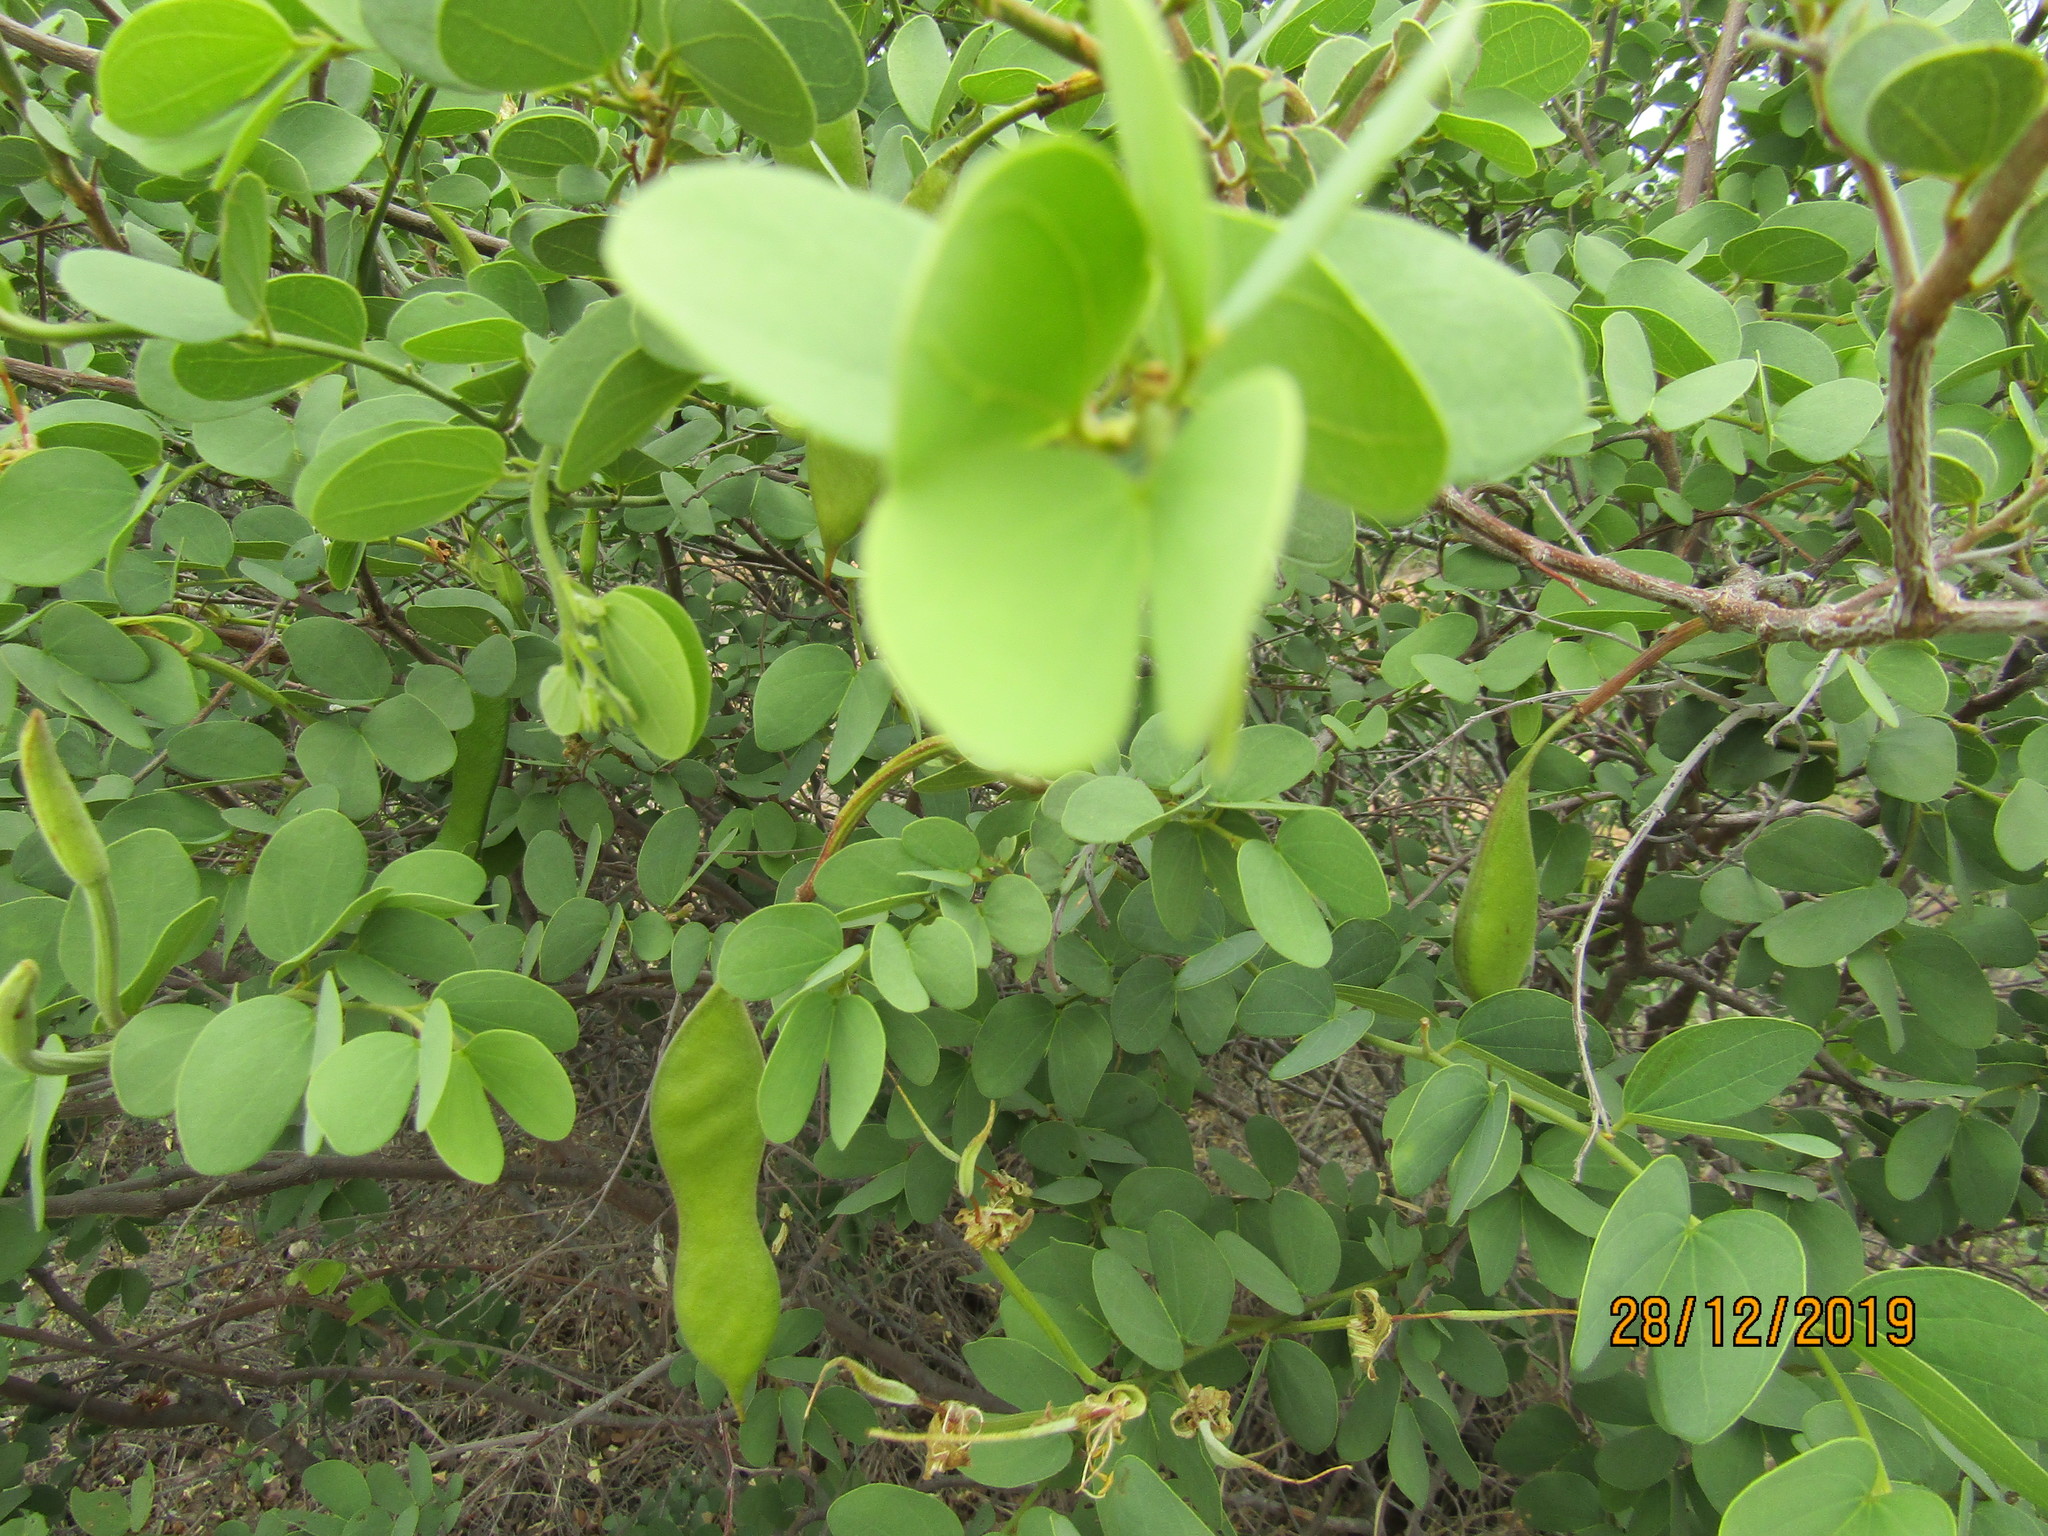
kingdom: Plantae
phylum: Tracheophyta
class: Magnoliopsida
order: Fabales
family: Fabaceae
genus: Bauhinia
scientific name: Bauhinia macrantha
